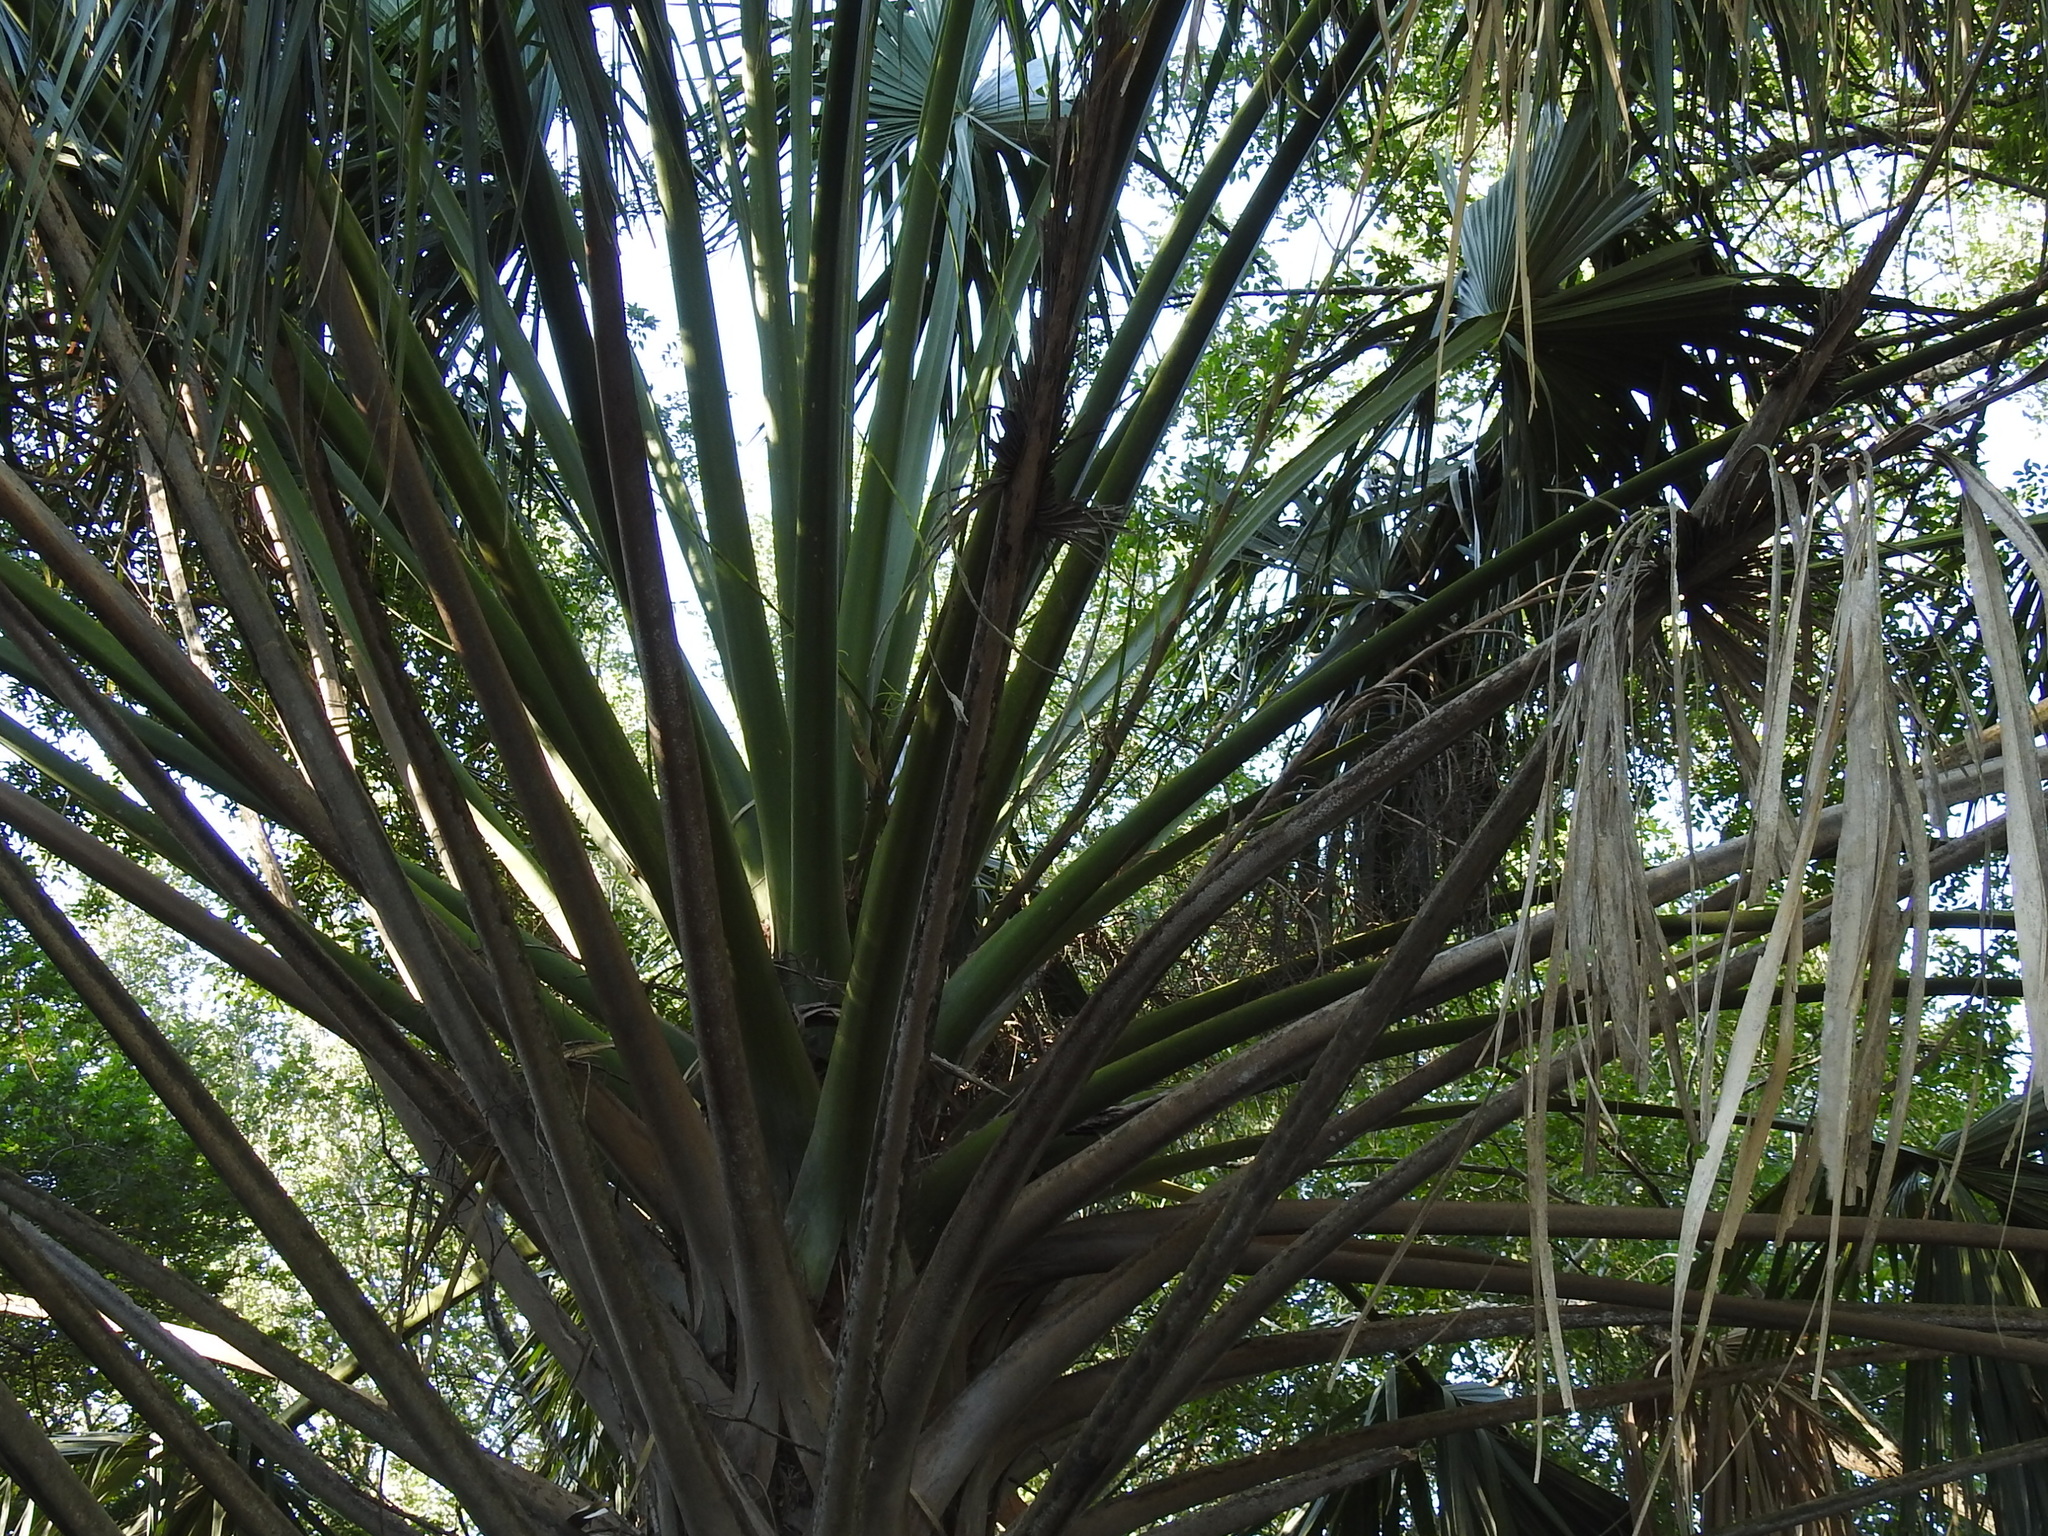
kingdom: Plantae
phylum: Tracheophyta
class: Liliopsida
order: Arecales
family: Arecaceae
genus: Sabal
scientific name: Sabal mexicana
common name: Texas palmetto
